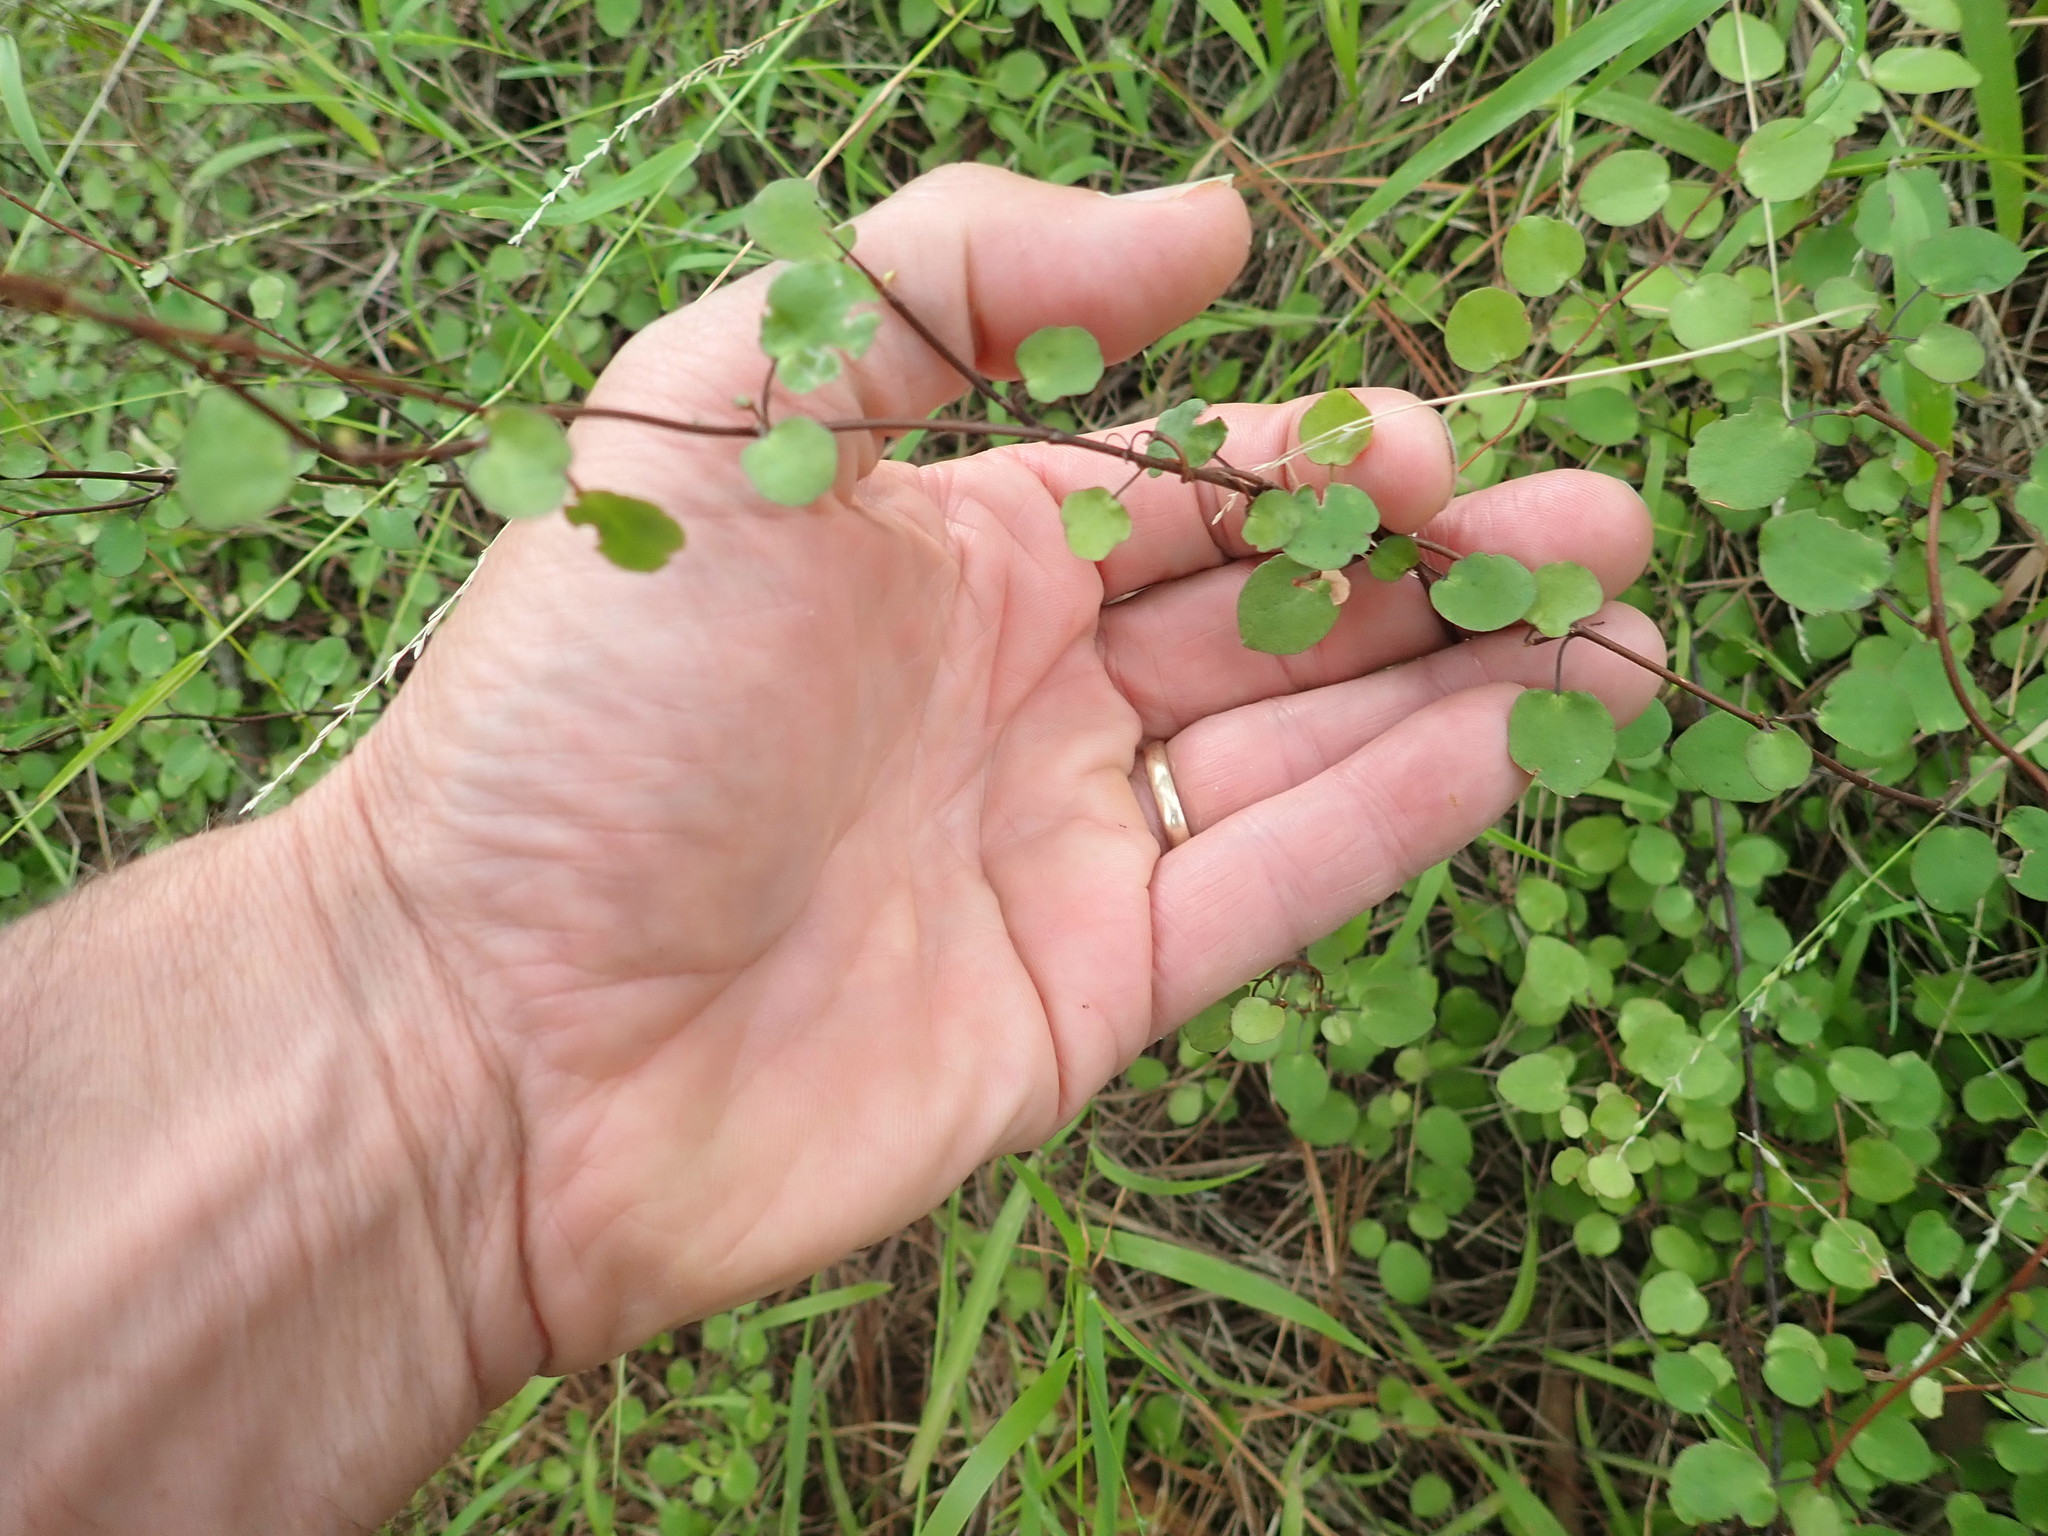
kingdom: Plantae
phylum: Tracheophyta
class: Magnoliopsida
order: Caryophyllales
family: Polygonaceae
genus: Muehlenbeckia
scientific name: Muehlenbeckia complexa
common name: Wireplant
